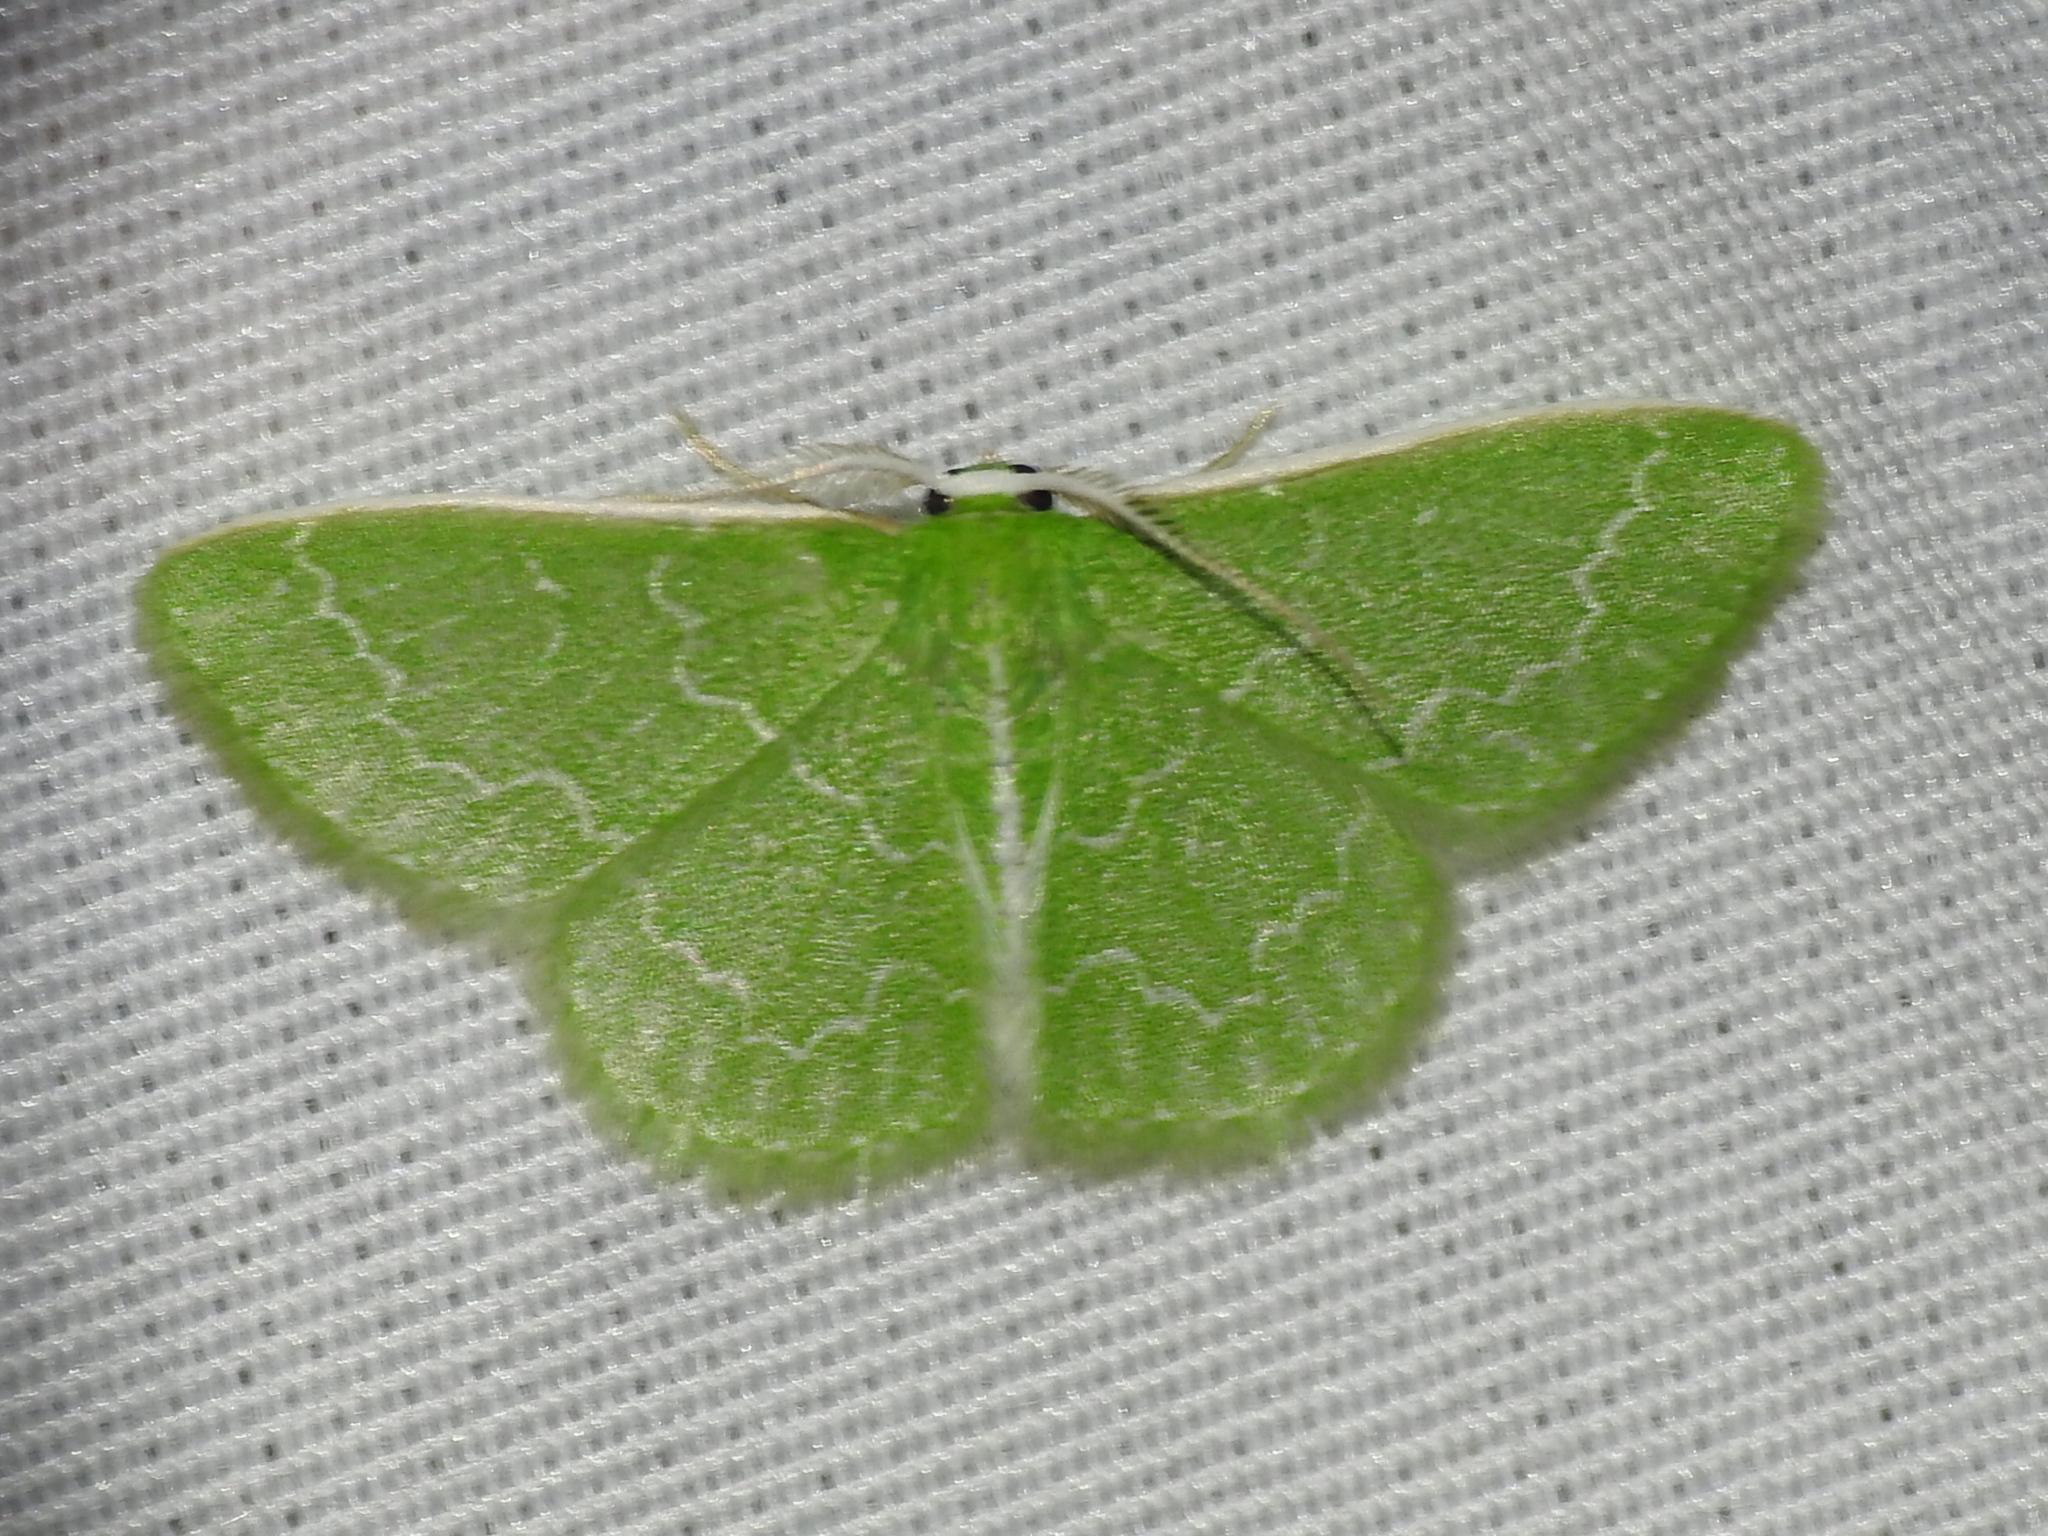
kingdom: Animalia
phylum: Arthropoda
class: Insecta
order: Lepidoptera
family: Geometridae
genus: Synchlora
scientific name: Synchlora frondaria
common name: Southern emerald
